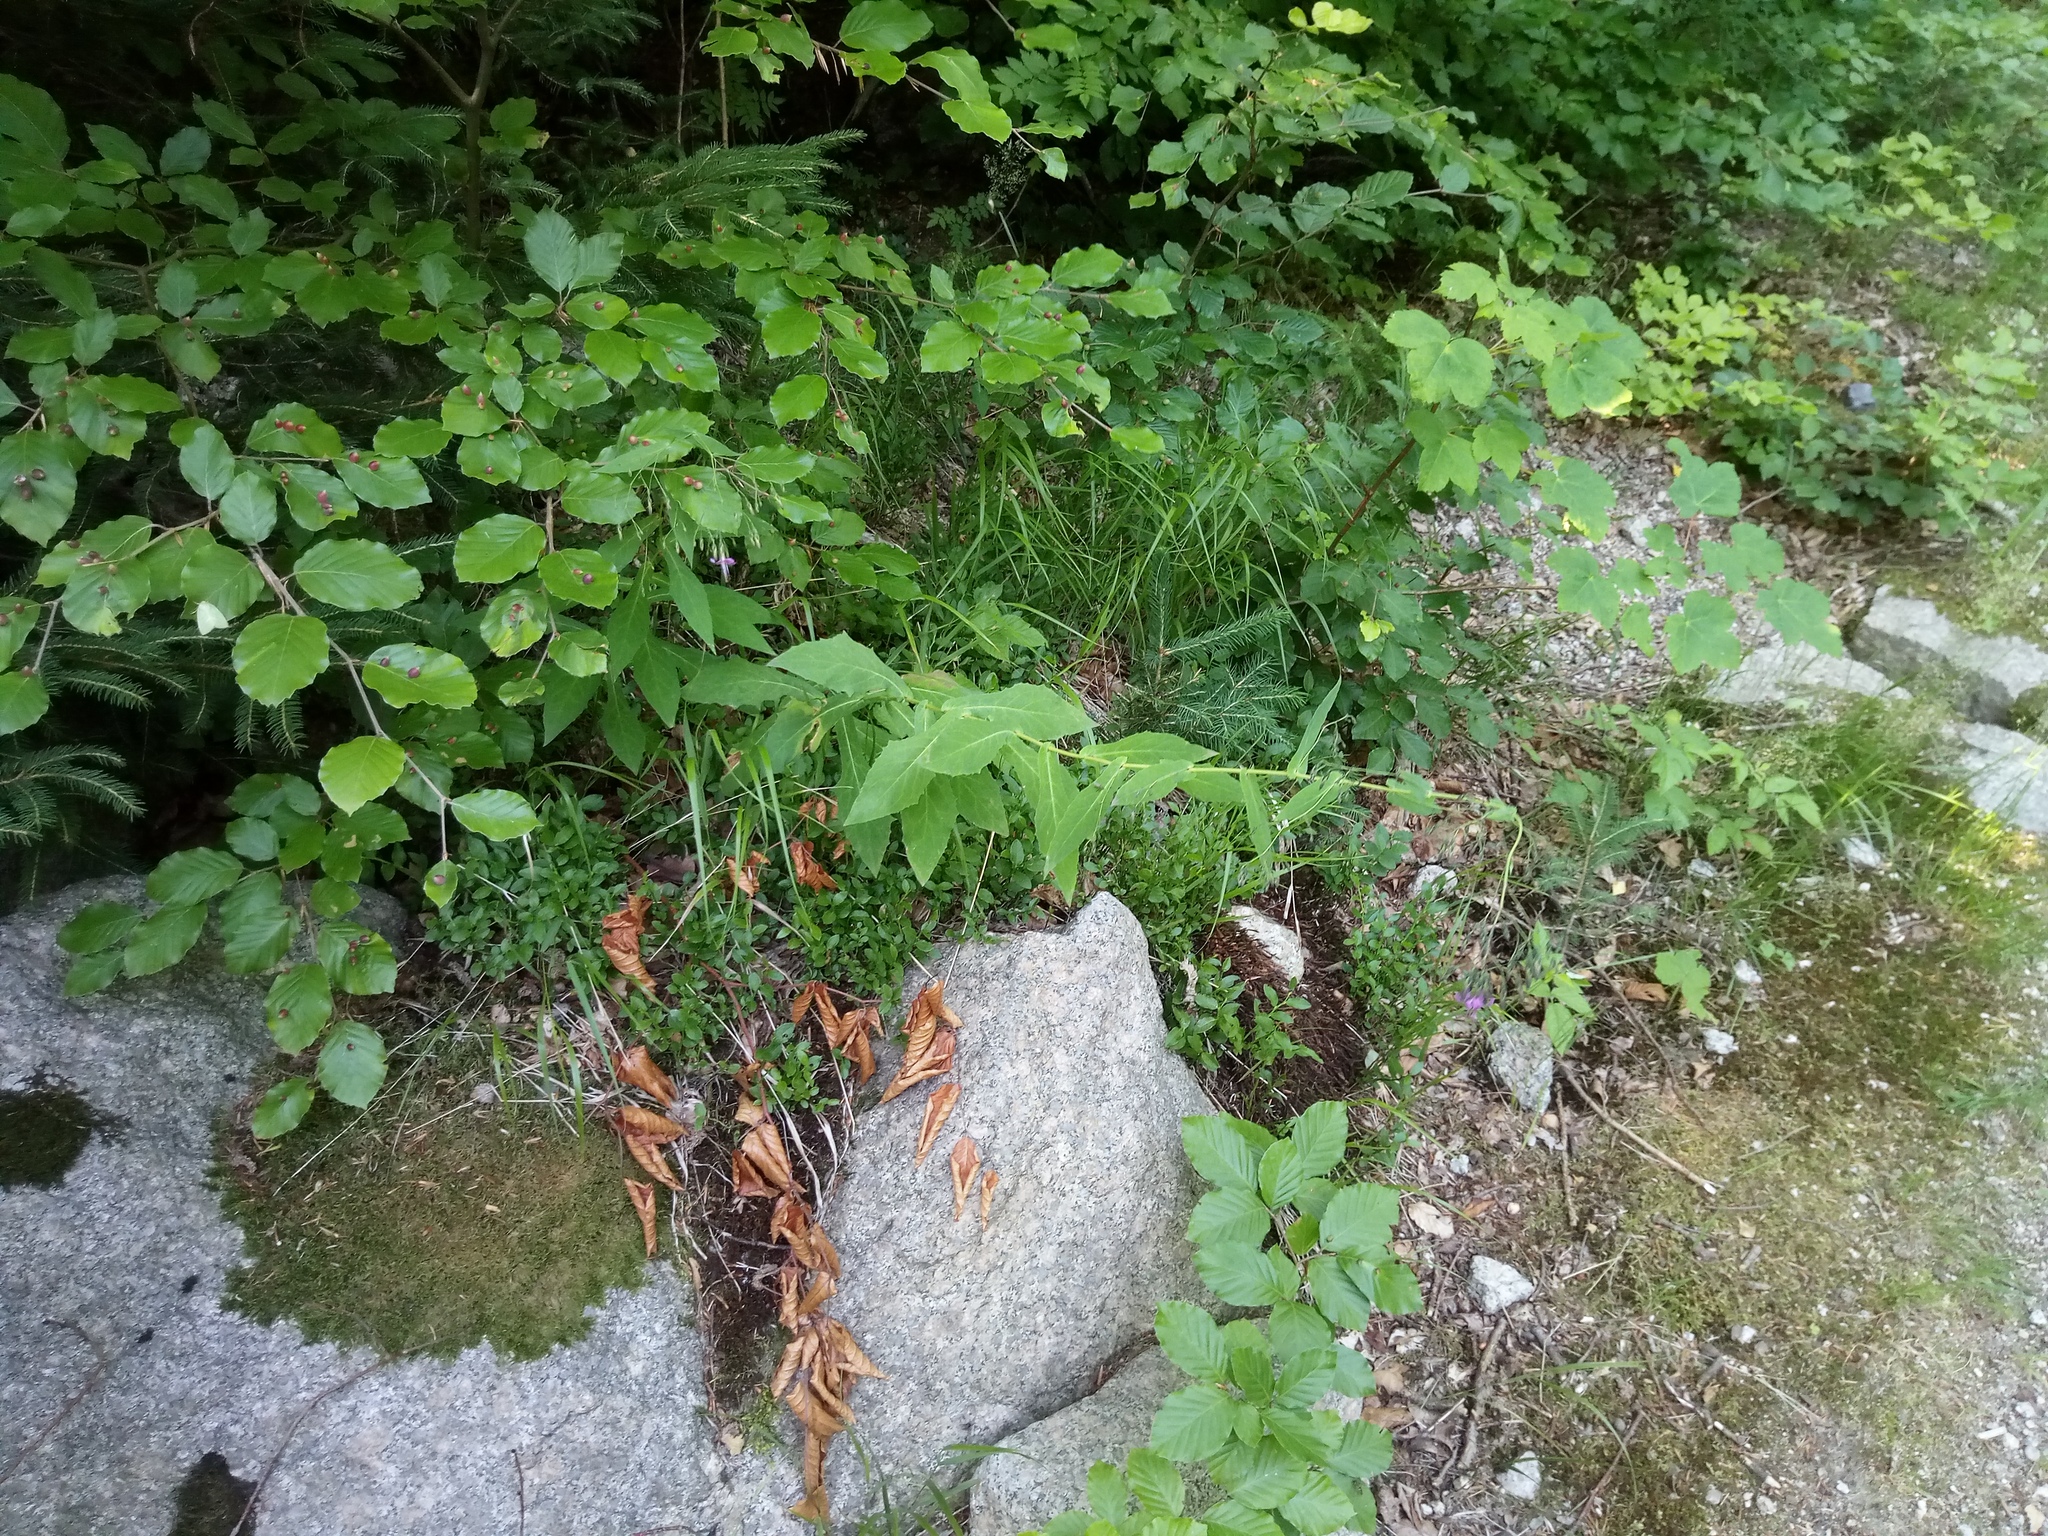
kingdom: Plantae
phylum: Tracheophyta
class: Magnoliopsida
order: Asterales
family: Asteraceae
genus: Prenanthes
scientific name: Prenanthes purpurea
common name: Purple lettuce
